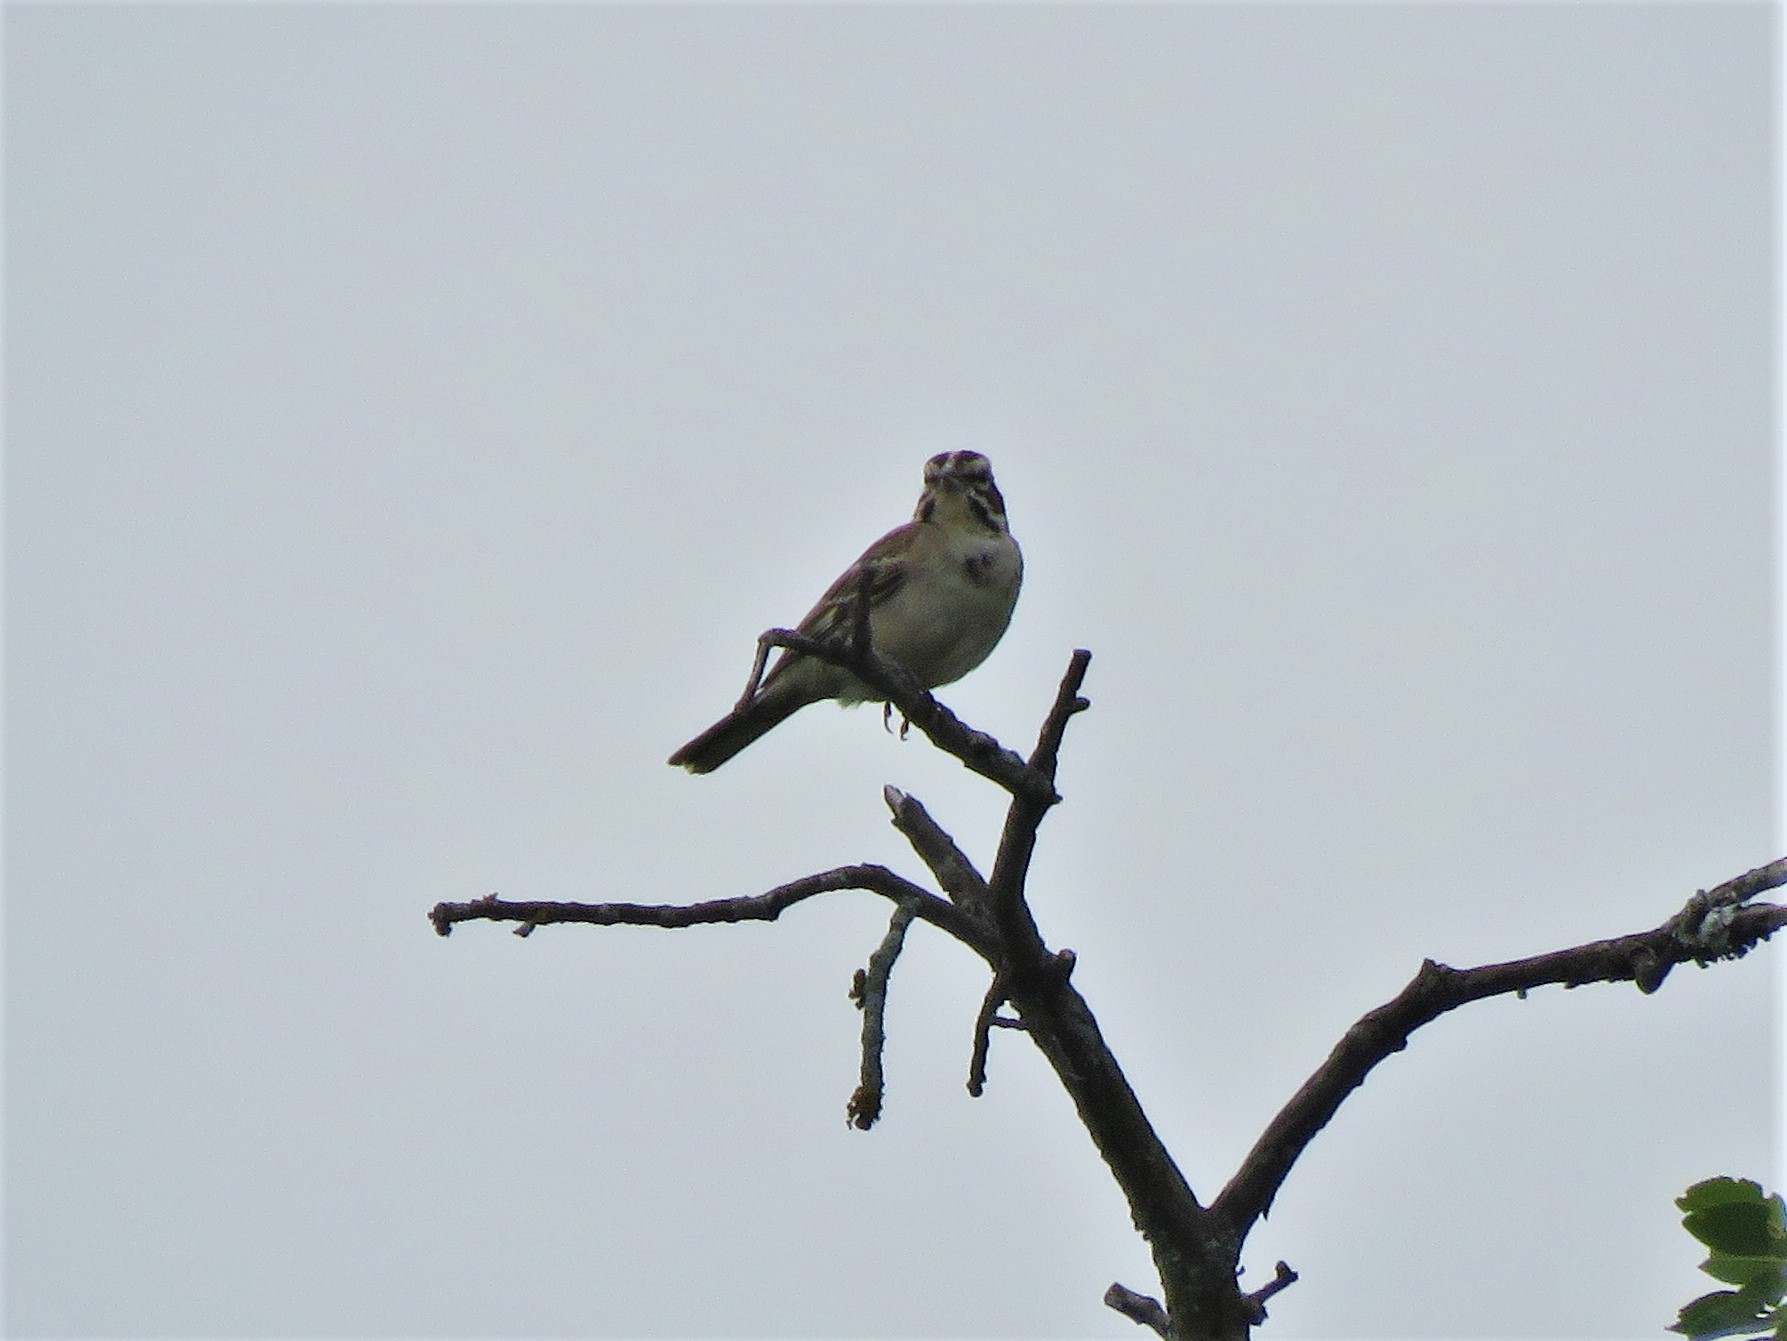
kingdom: Animalia
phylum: Chordata
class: Aves
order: Passeriformes
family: Passerellidae
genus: Chondestes
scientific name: Chondestes grammacus
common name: Lark sparrow
